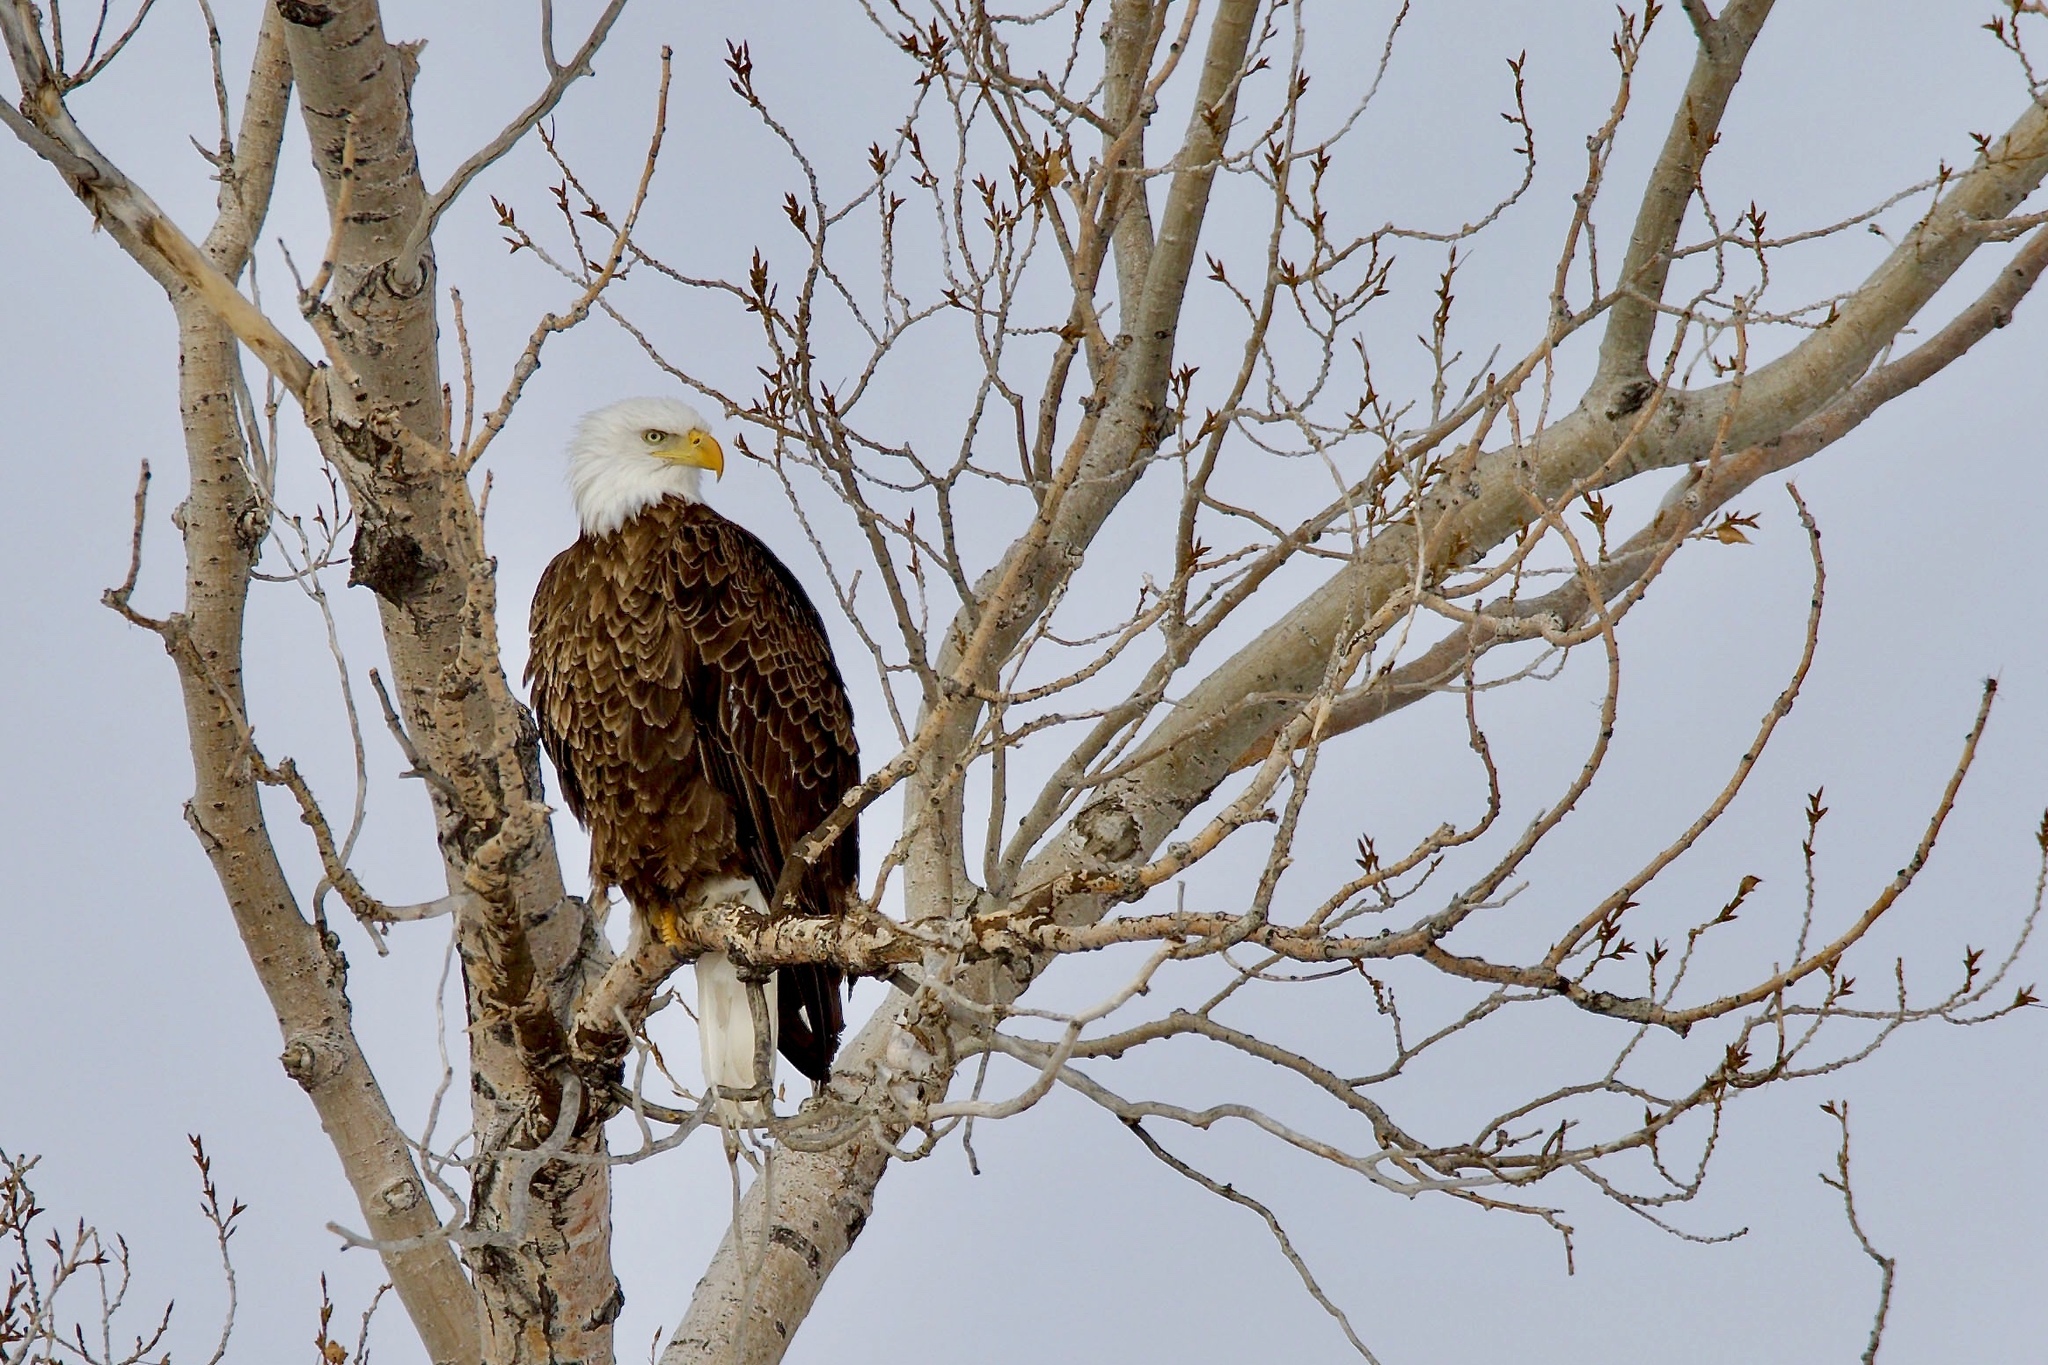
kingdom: Animalia
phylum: Chordata
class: Aves
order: Accipitriformes
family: Accipitridae
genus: Haliaeetus
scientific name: Haliaeetus leucocephalus
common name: Bald eagle
